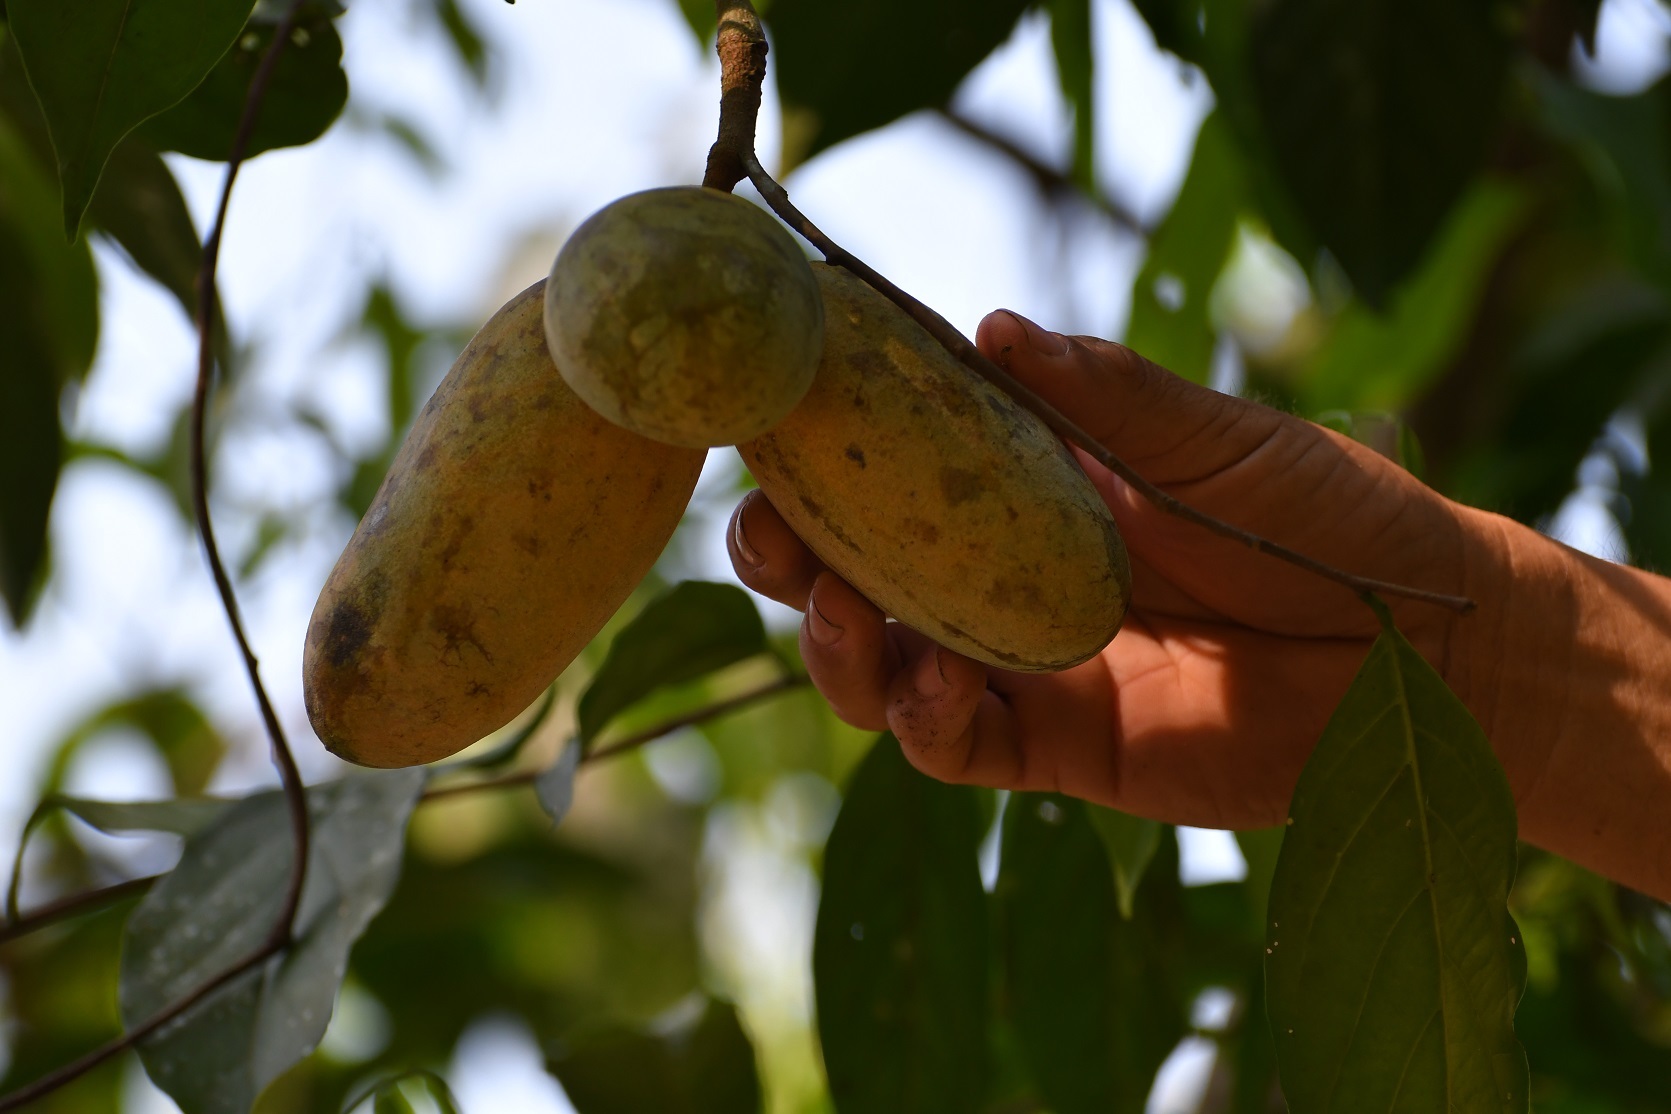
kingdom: Plantae
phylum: Tracheophyta
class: Magnoliopsida
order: Magnoliales
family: Annonaceae
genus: Tridimeris
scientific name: Tridimeris chiapensis
